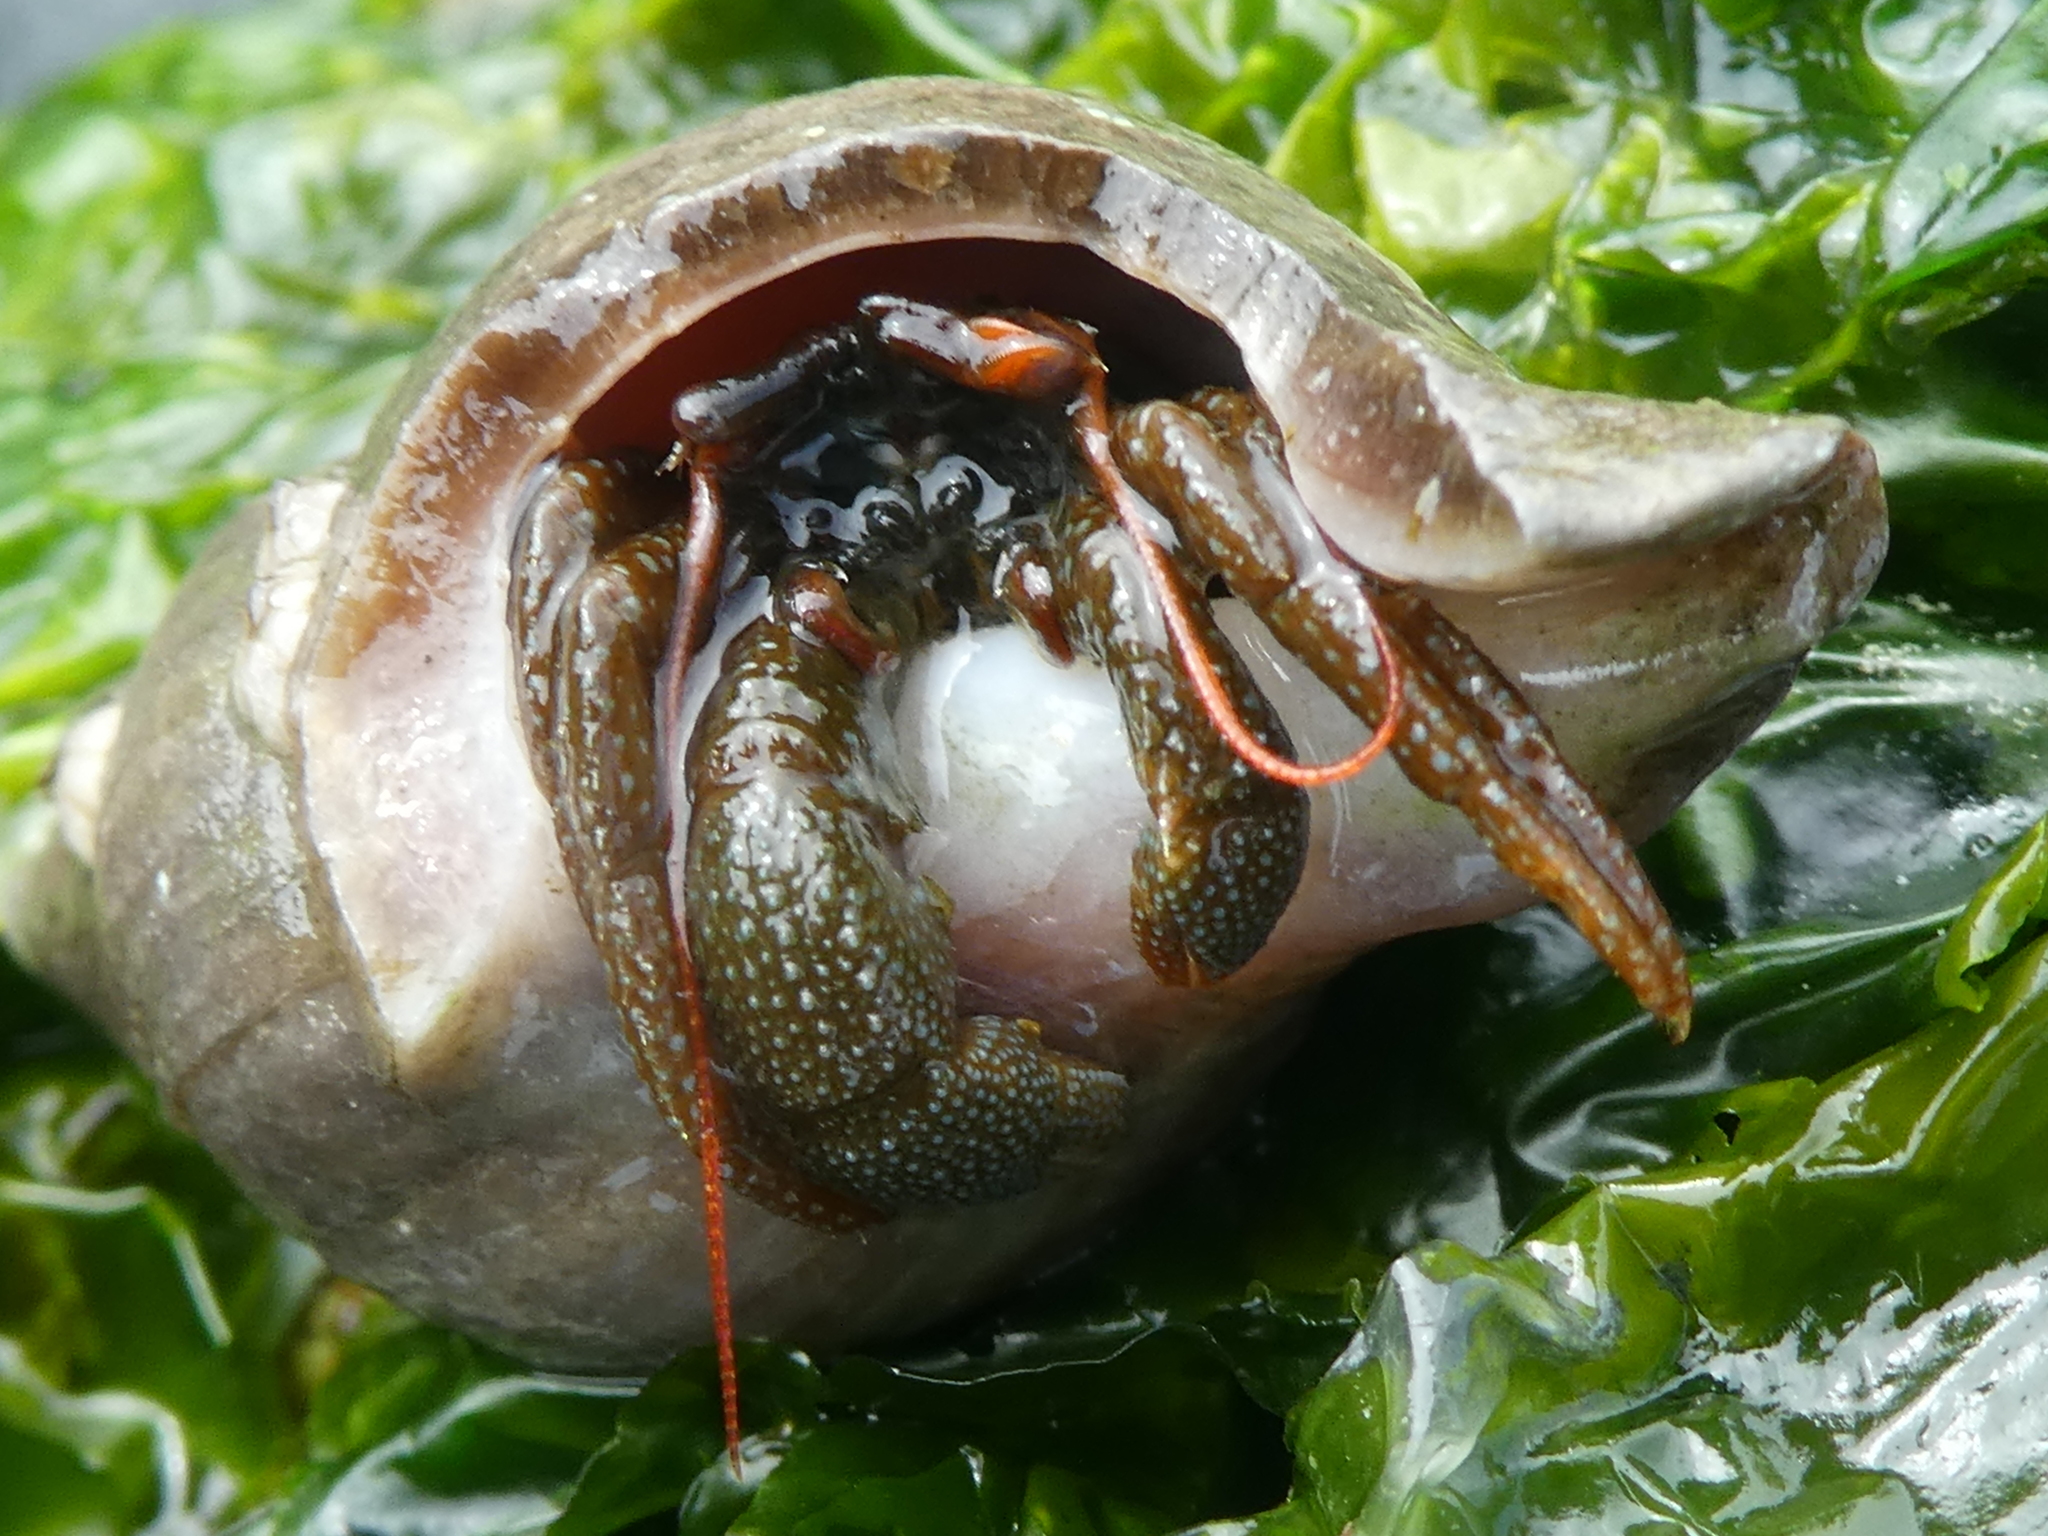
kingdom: Animalia
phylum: Arthropoda
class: Malacostraca
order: Decapoda
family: Paguridae
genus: Pagurus
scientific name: Pagurus granosimanus
